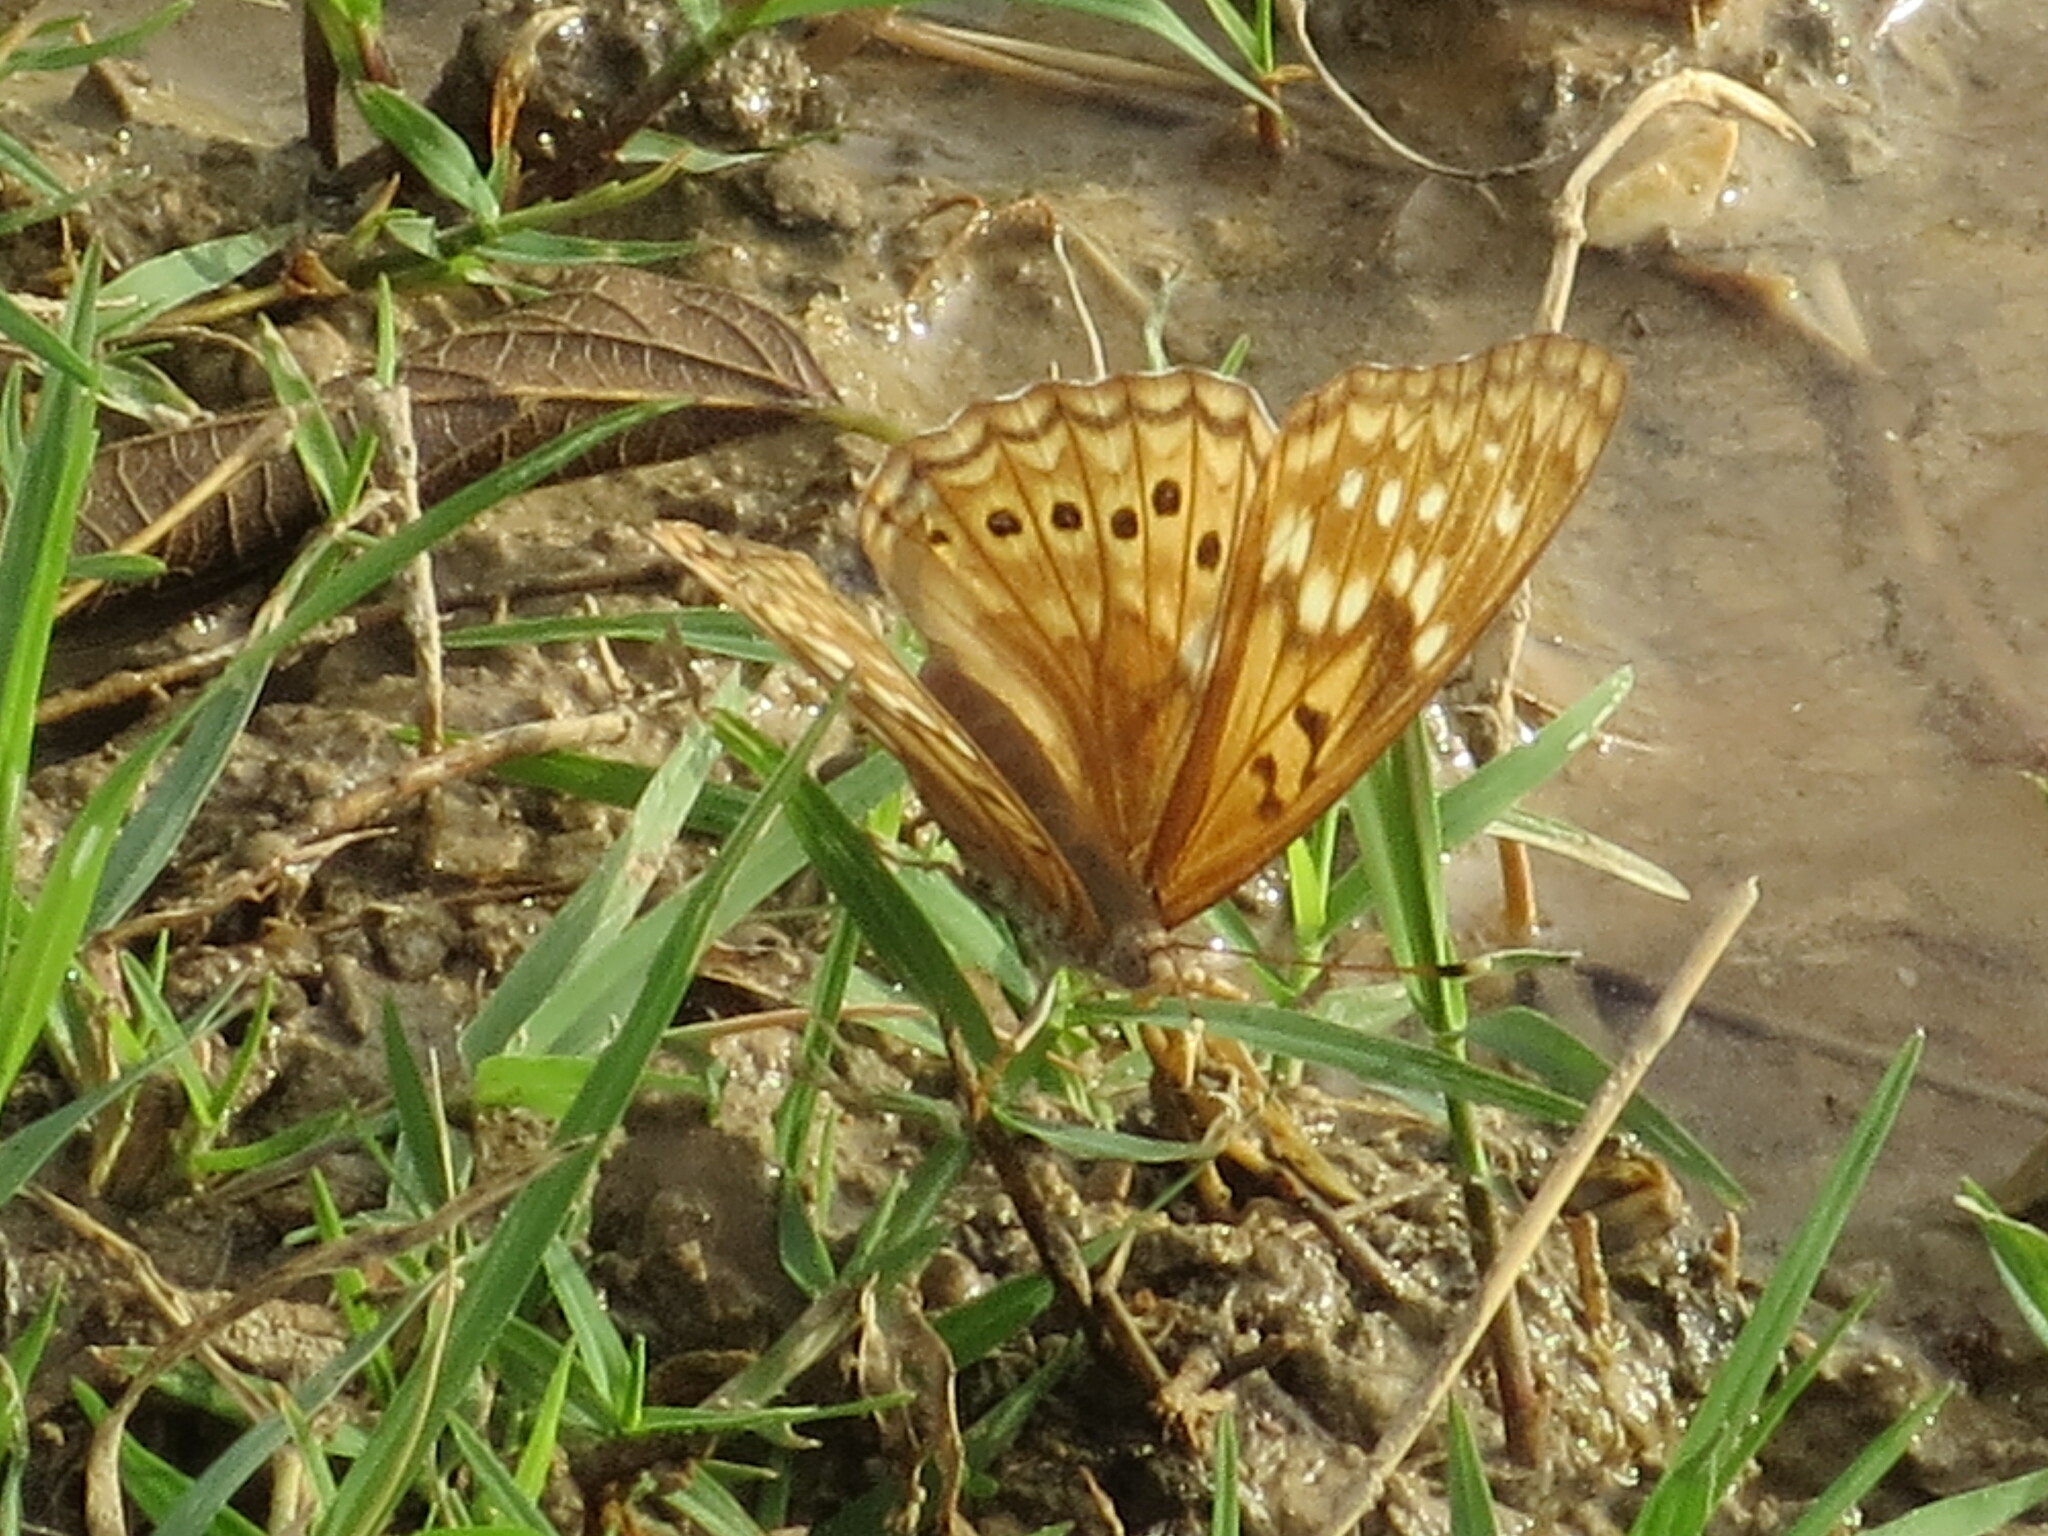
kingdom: Animalia
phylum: Arthropoda
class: Insecta
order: Lepidoptera
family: Nymphalidae
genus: Asterocampa
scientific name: Asterocampa clyton
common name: Tawny emperor
